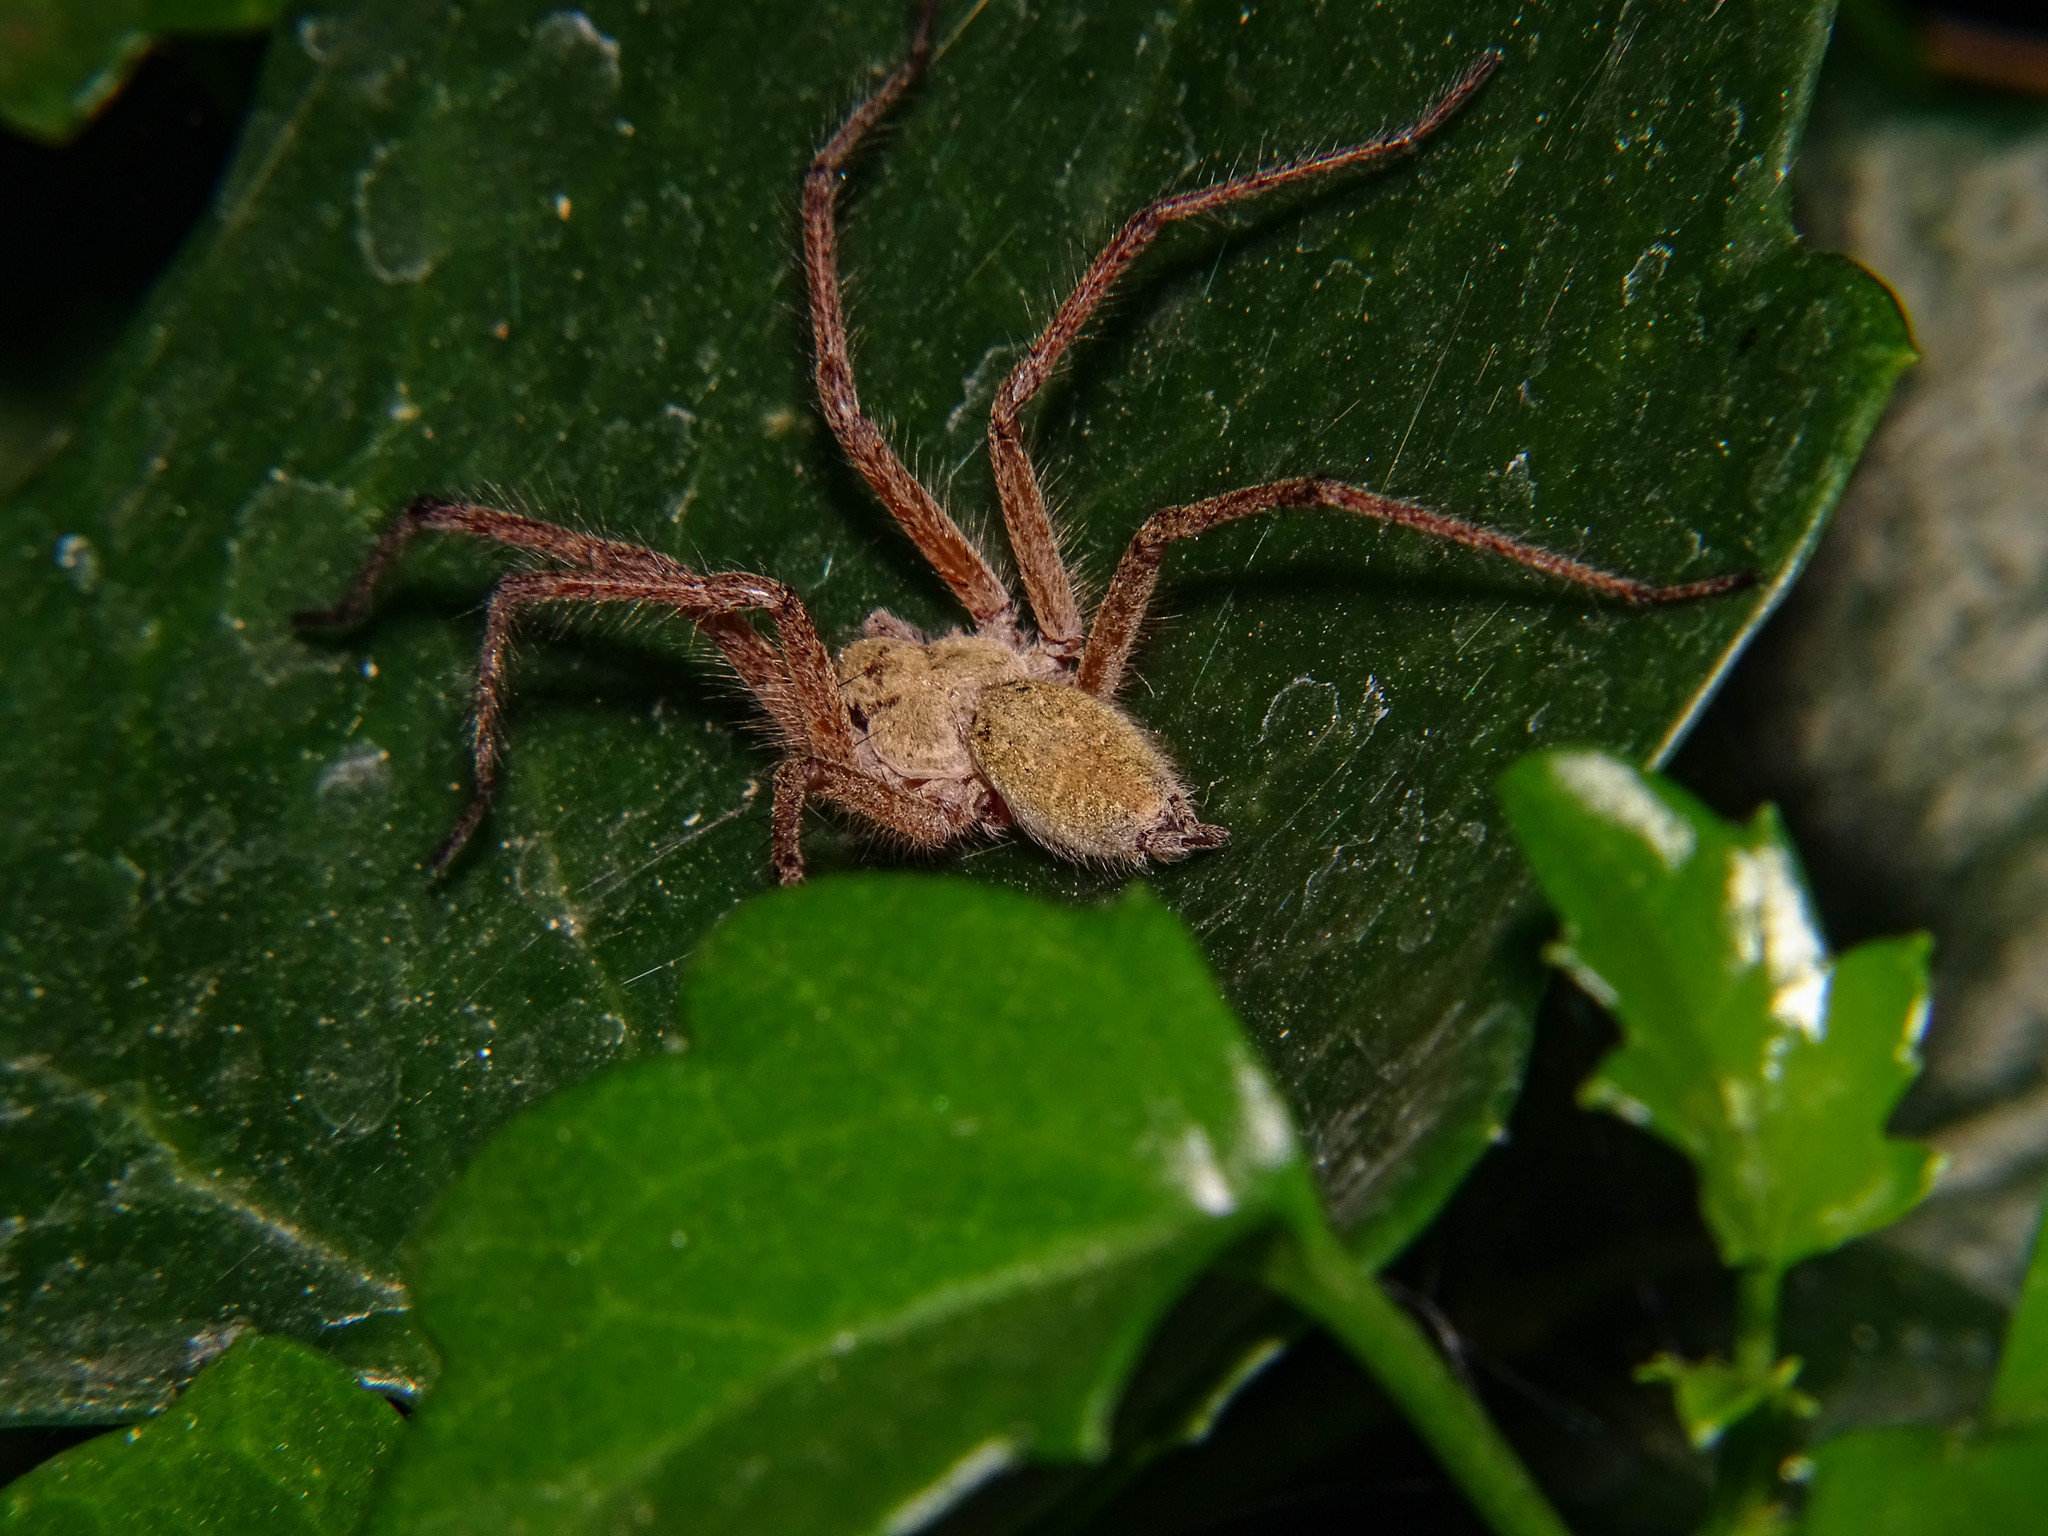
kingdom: Animalia
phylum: Arthropoda
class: Arachnida
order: Araneae
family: Agelenidae
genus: Agelena
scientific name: Agelena orientalis
